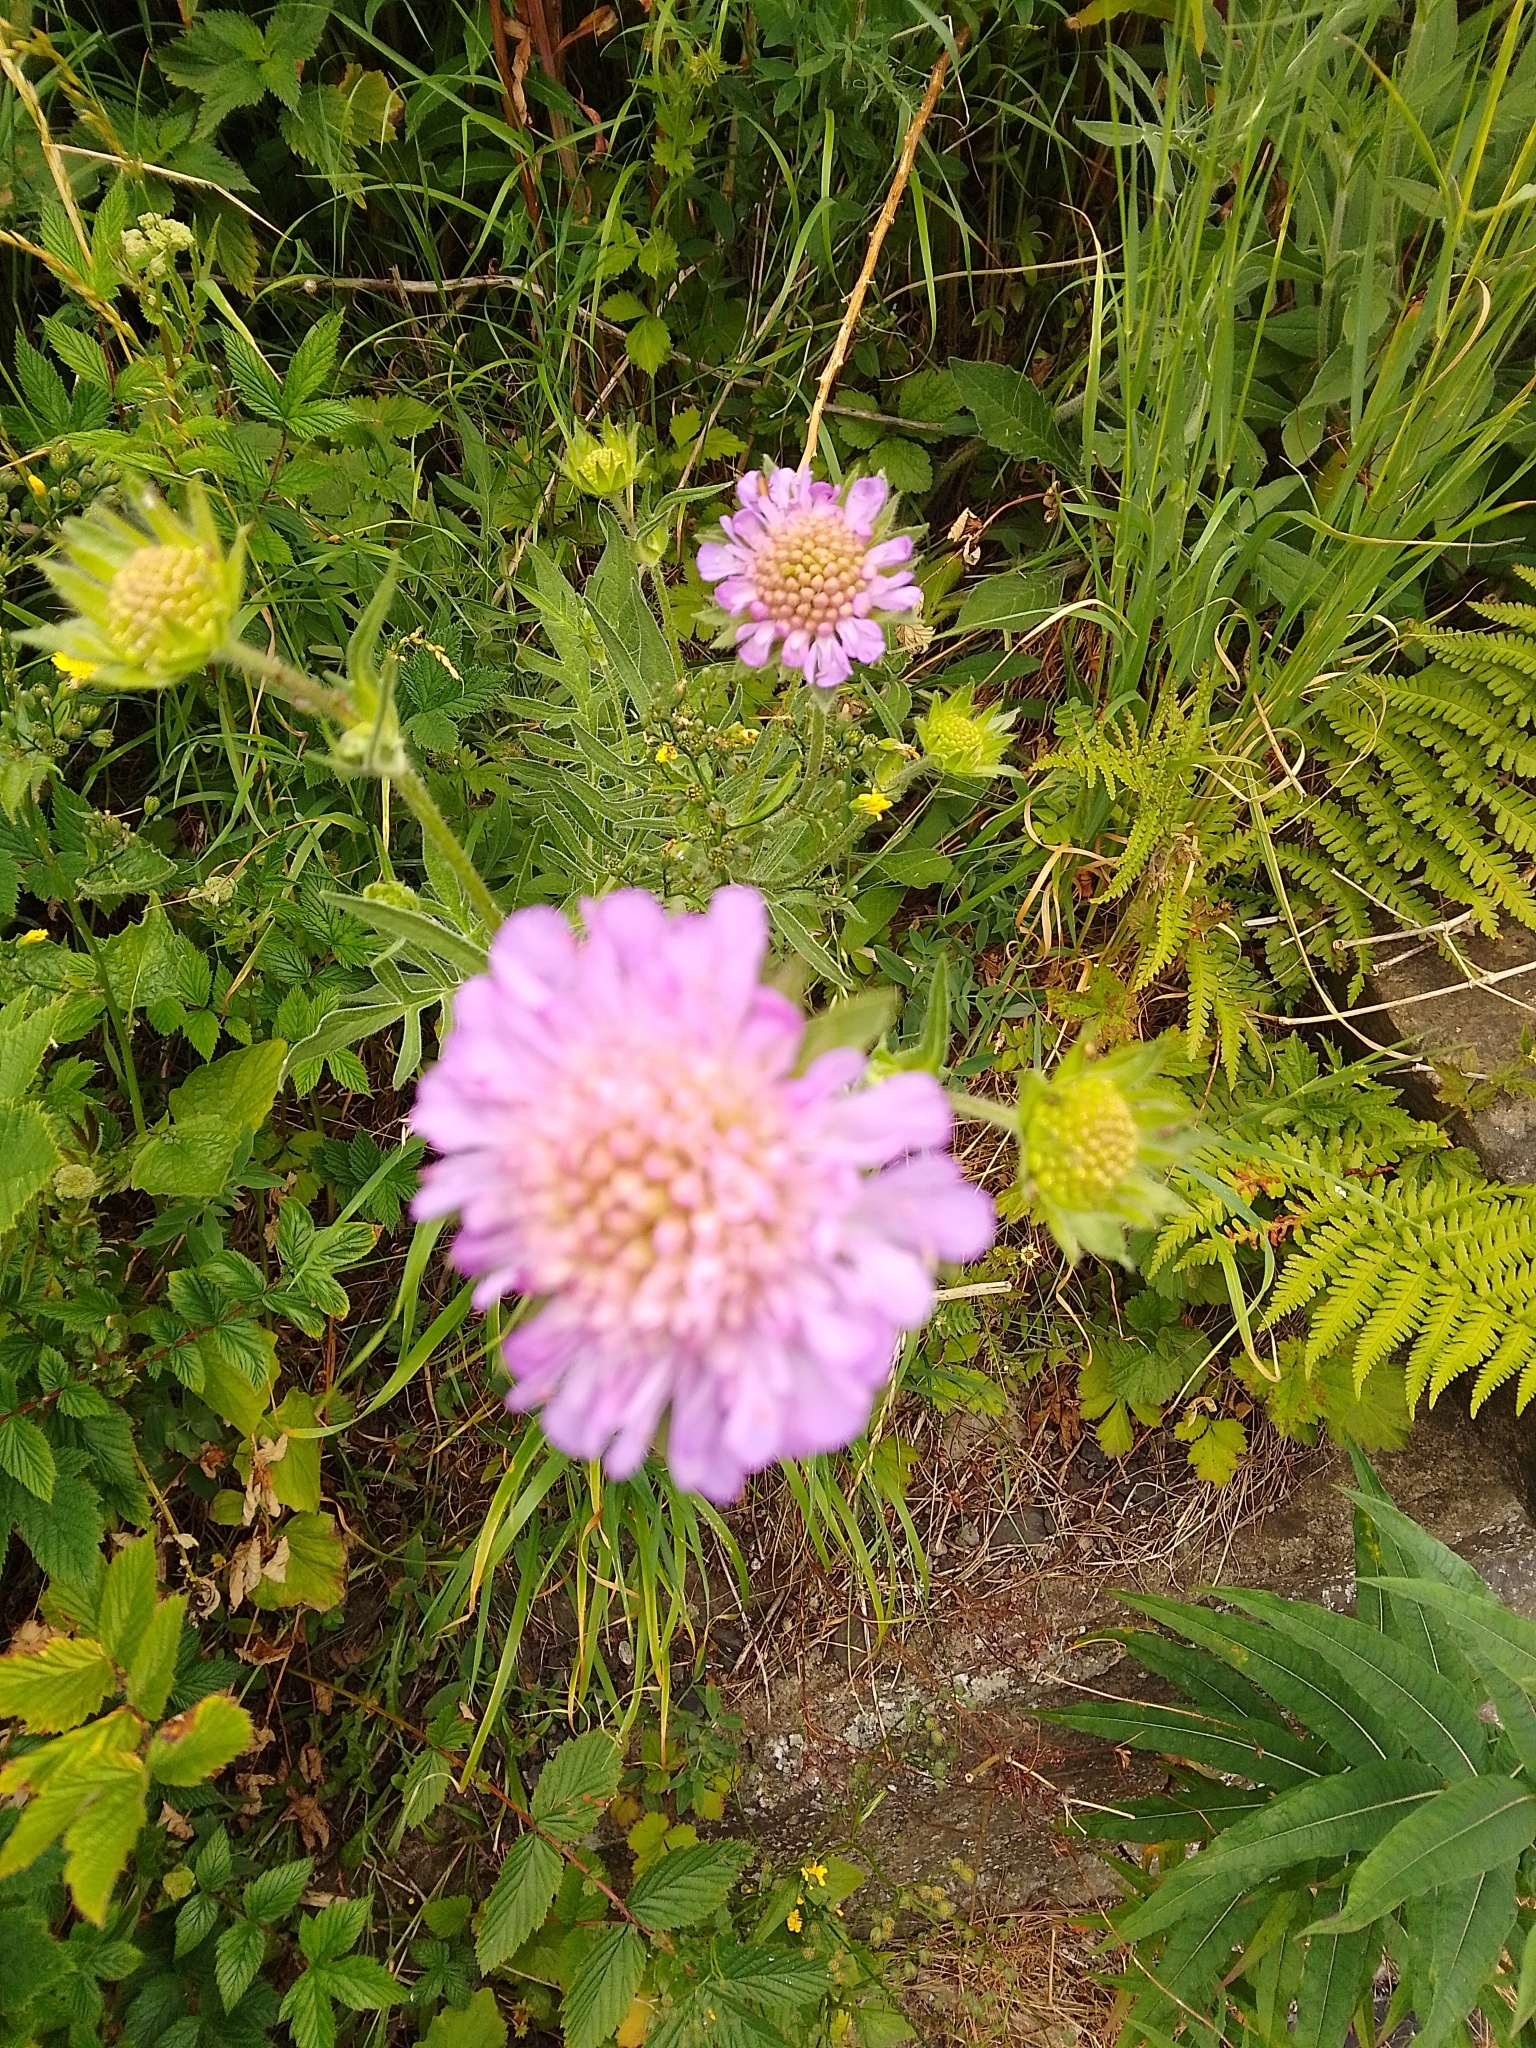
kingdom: Plantae
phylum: Tracheophyta
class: Magnoliopsida
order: Dipsacales
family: Caprifoliaceae
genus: Knautia
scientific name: Knautia arvensis
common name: Field scabiosa
